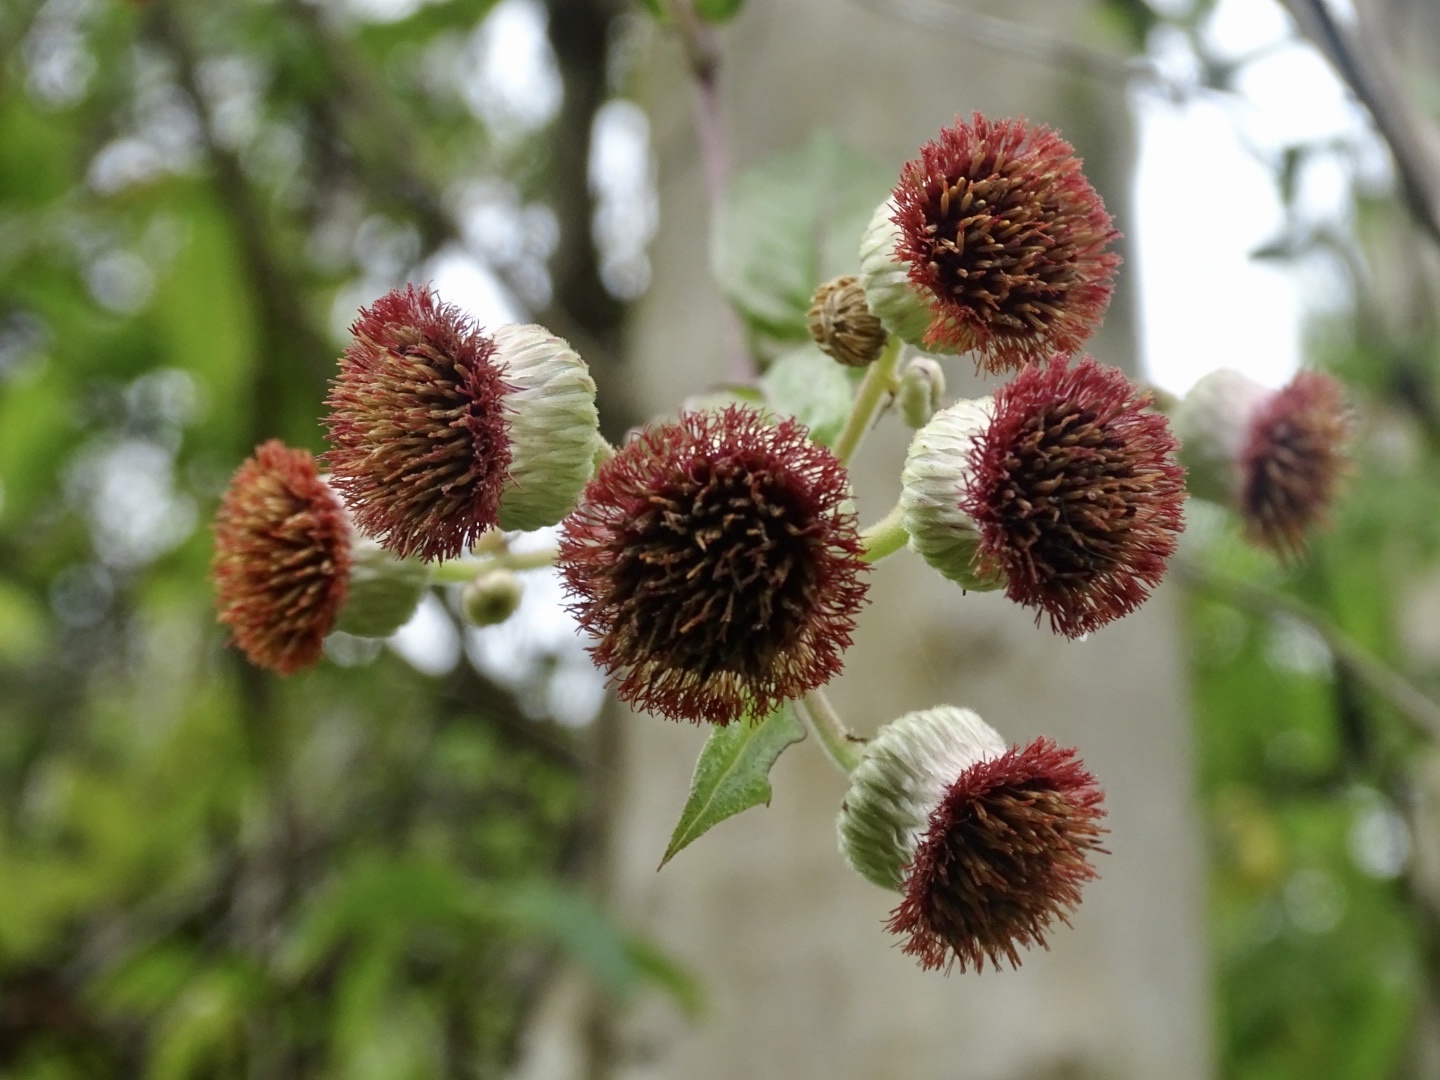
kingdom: Plantae
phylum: Tracheophyta
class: Magnoliopsida
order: Asterales
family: Asteraceae
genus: Blumea
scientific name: Blumea megacephala
